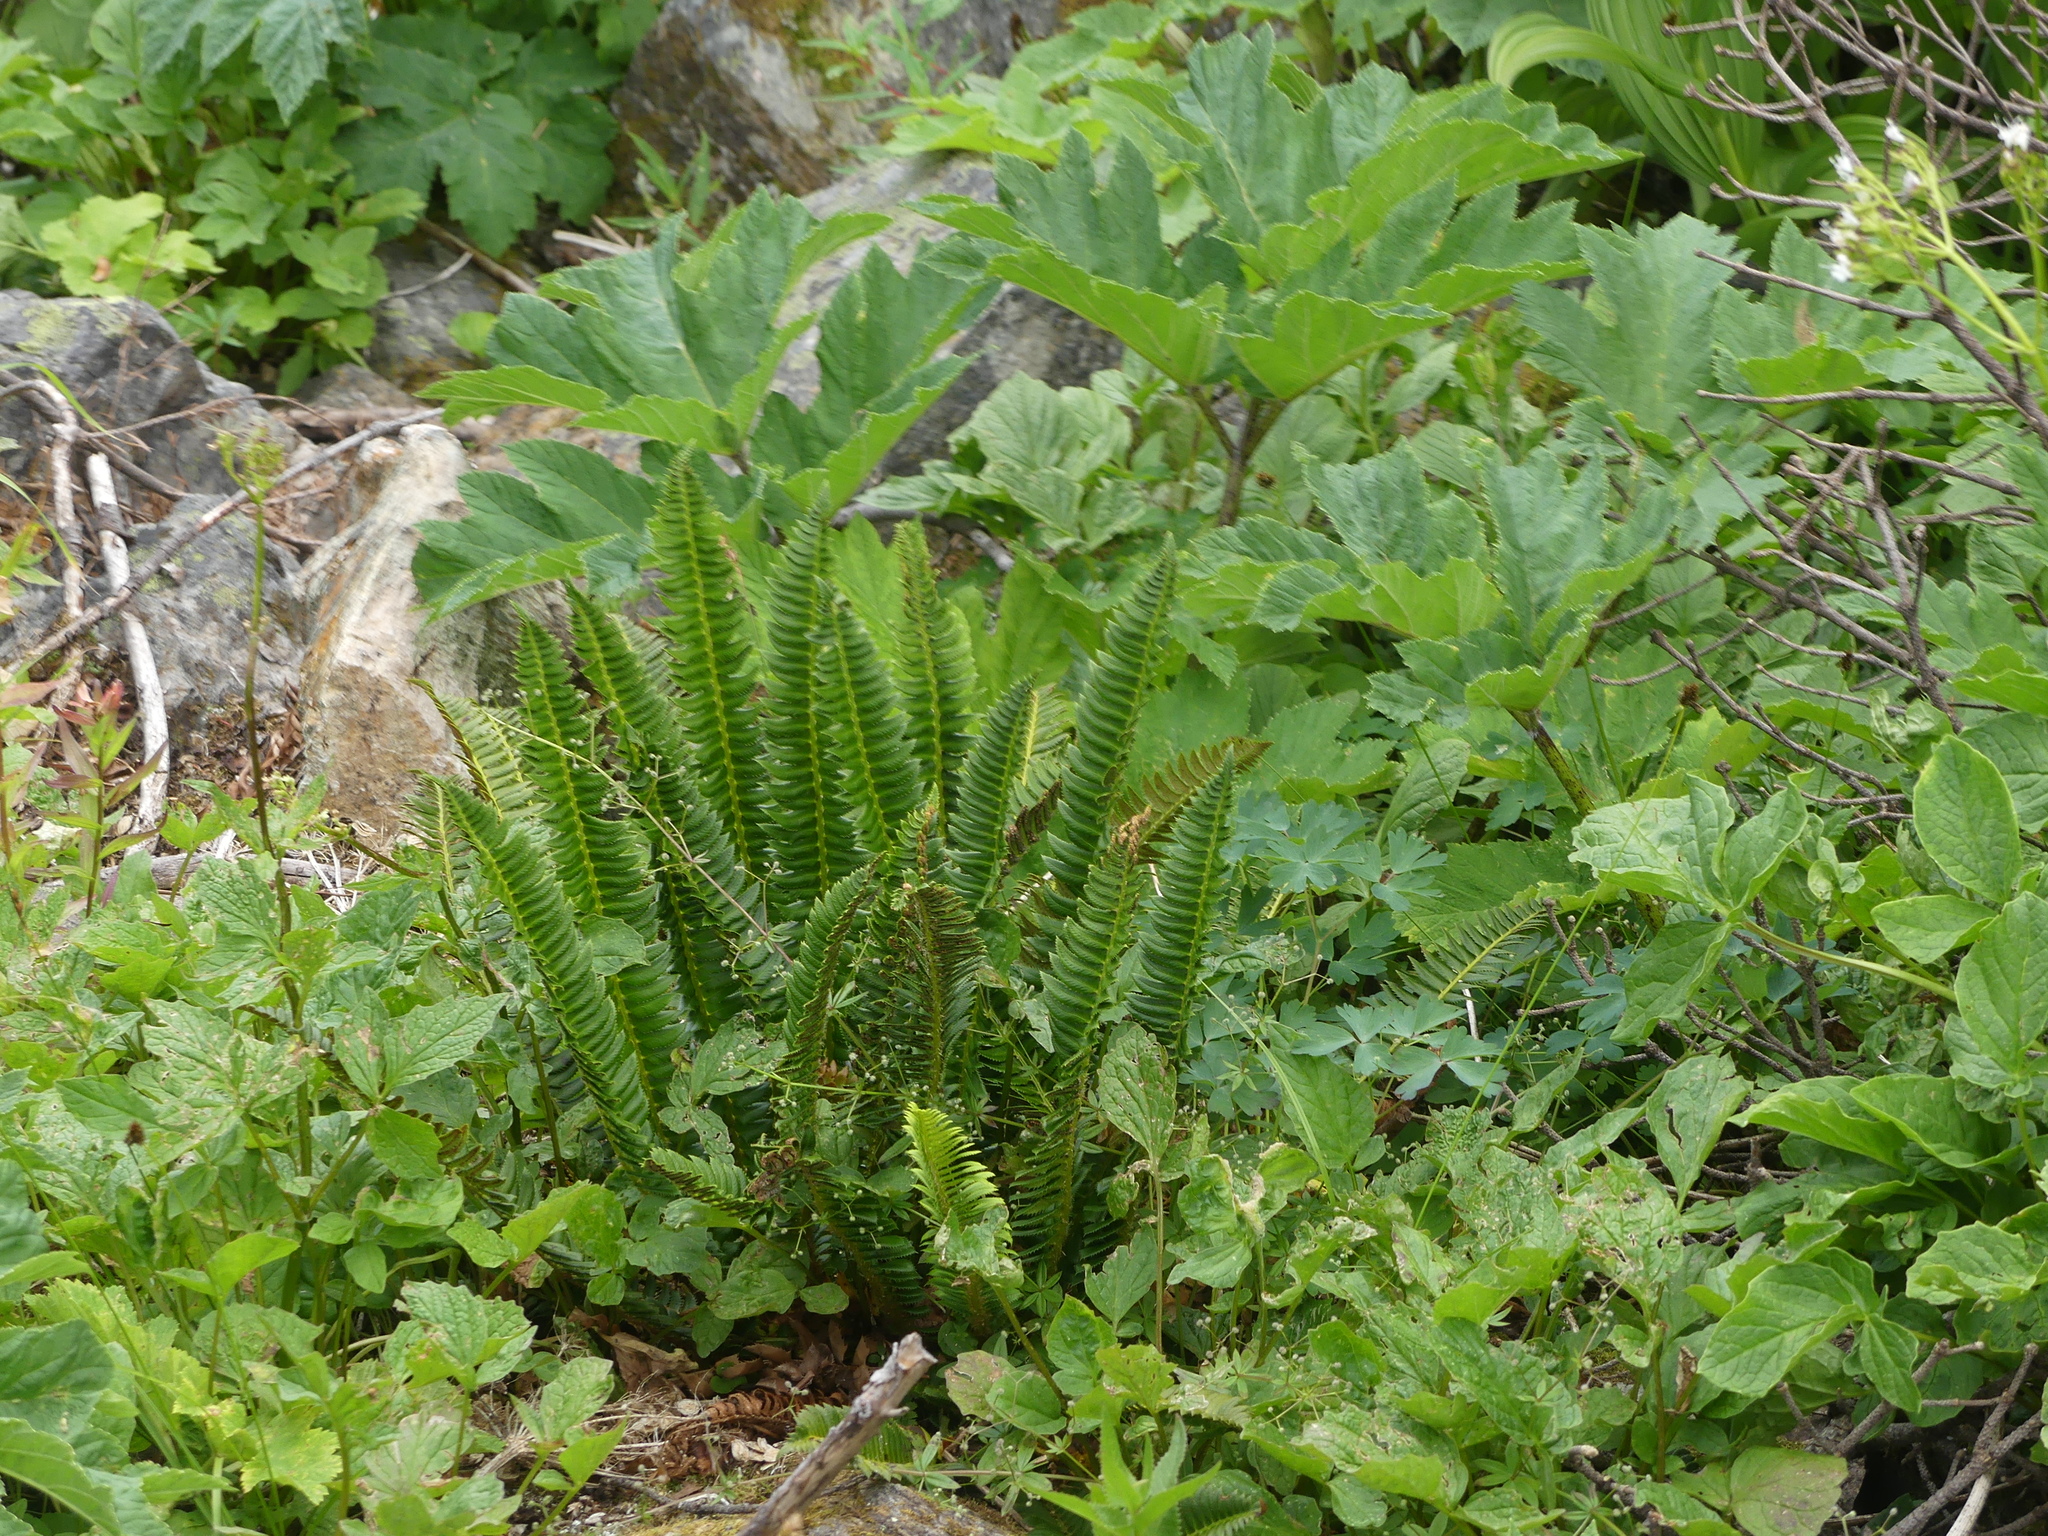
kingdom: Plantae
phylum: Tracheophyta
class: Polypodiopsida
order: Polypodiales
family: Dryopteridaceae
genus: Polystichum
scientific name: Polystichum lonchitis
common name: Holly fern
